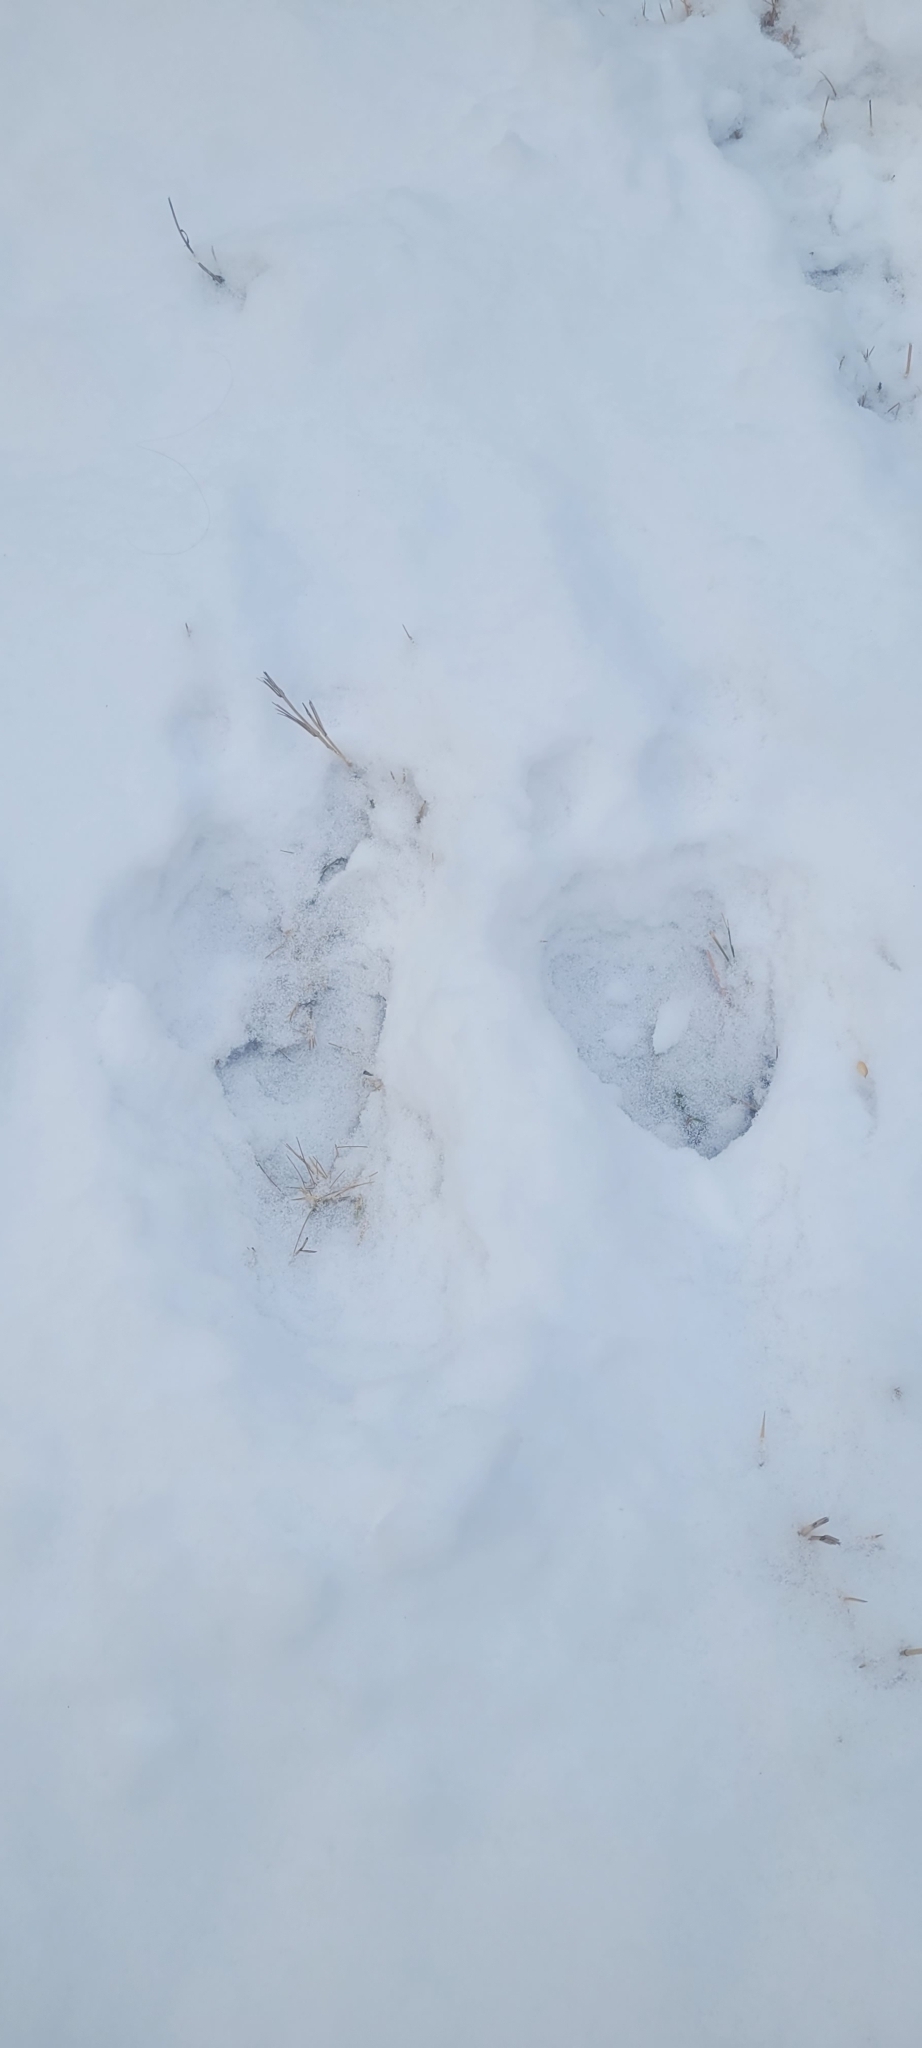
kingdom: Animalia
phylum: Chordata
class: Mammalia
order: Artiodactyla
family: Cervidae
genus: Alces
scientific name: Alces americanus
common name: Moose
